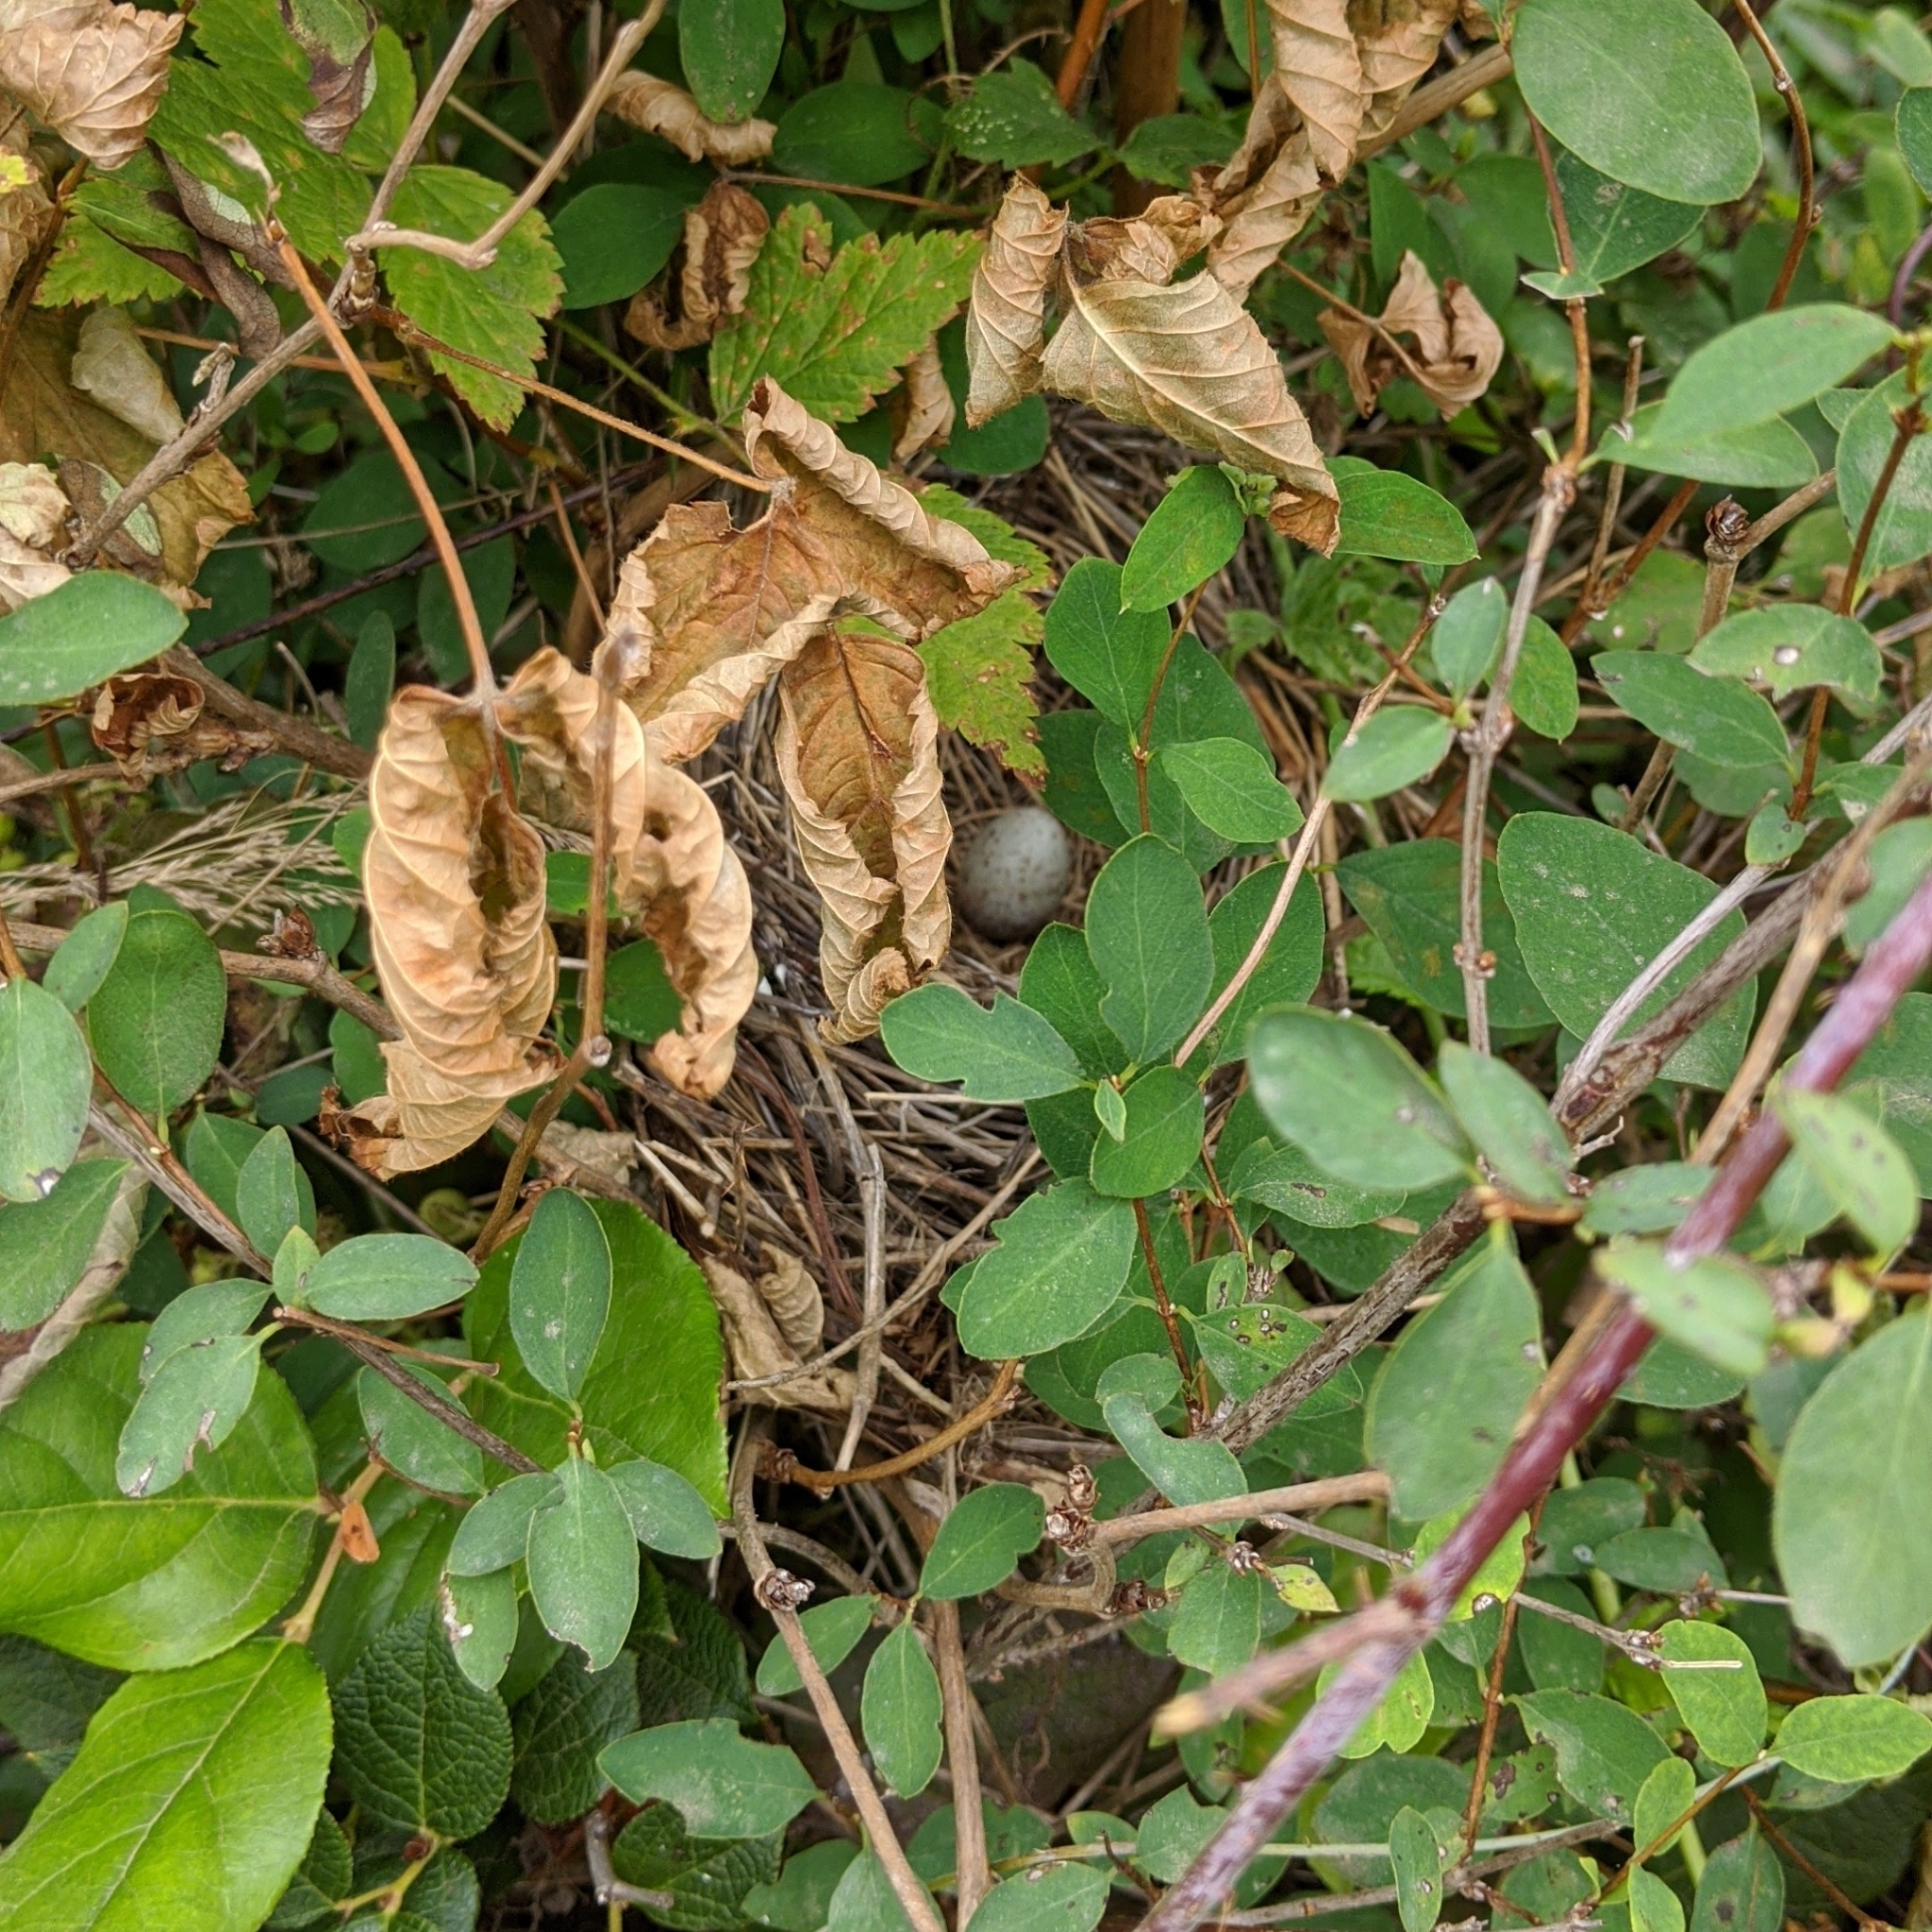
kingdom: Animalia
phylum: Chordata
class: Aves
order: Passeriformes
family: Passerellidae
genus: Melospiza
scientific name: Melospiza melodia
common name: Song sparrow
